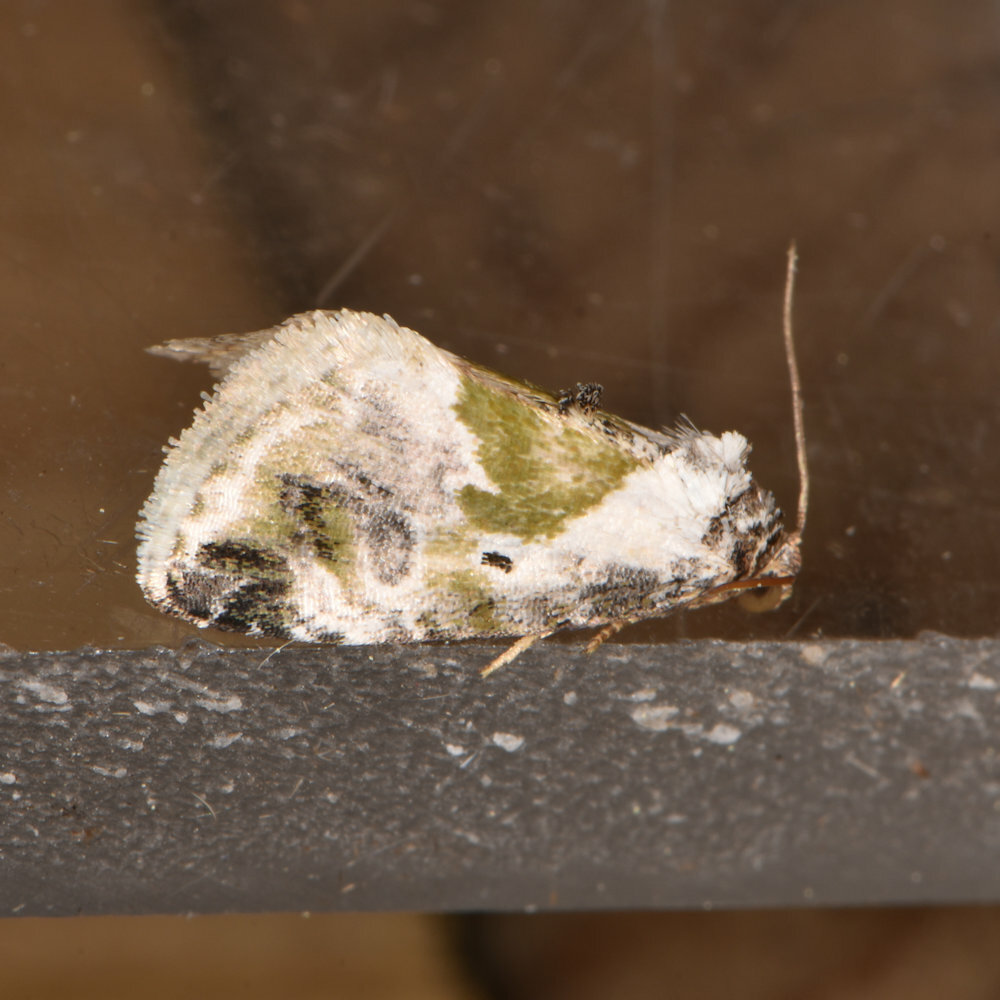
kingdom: Animalia
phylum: Arthropoda
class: Insecta
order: Lepidoptera
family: Noctuidae
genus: Maliattha
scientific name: Maliattha synochitis
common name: Black-dotted glyph
